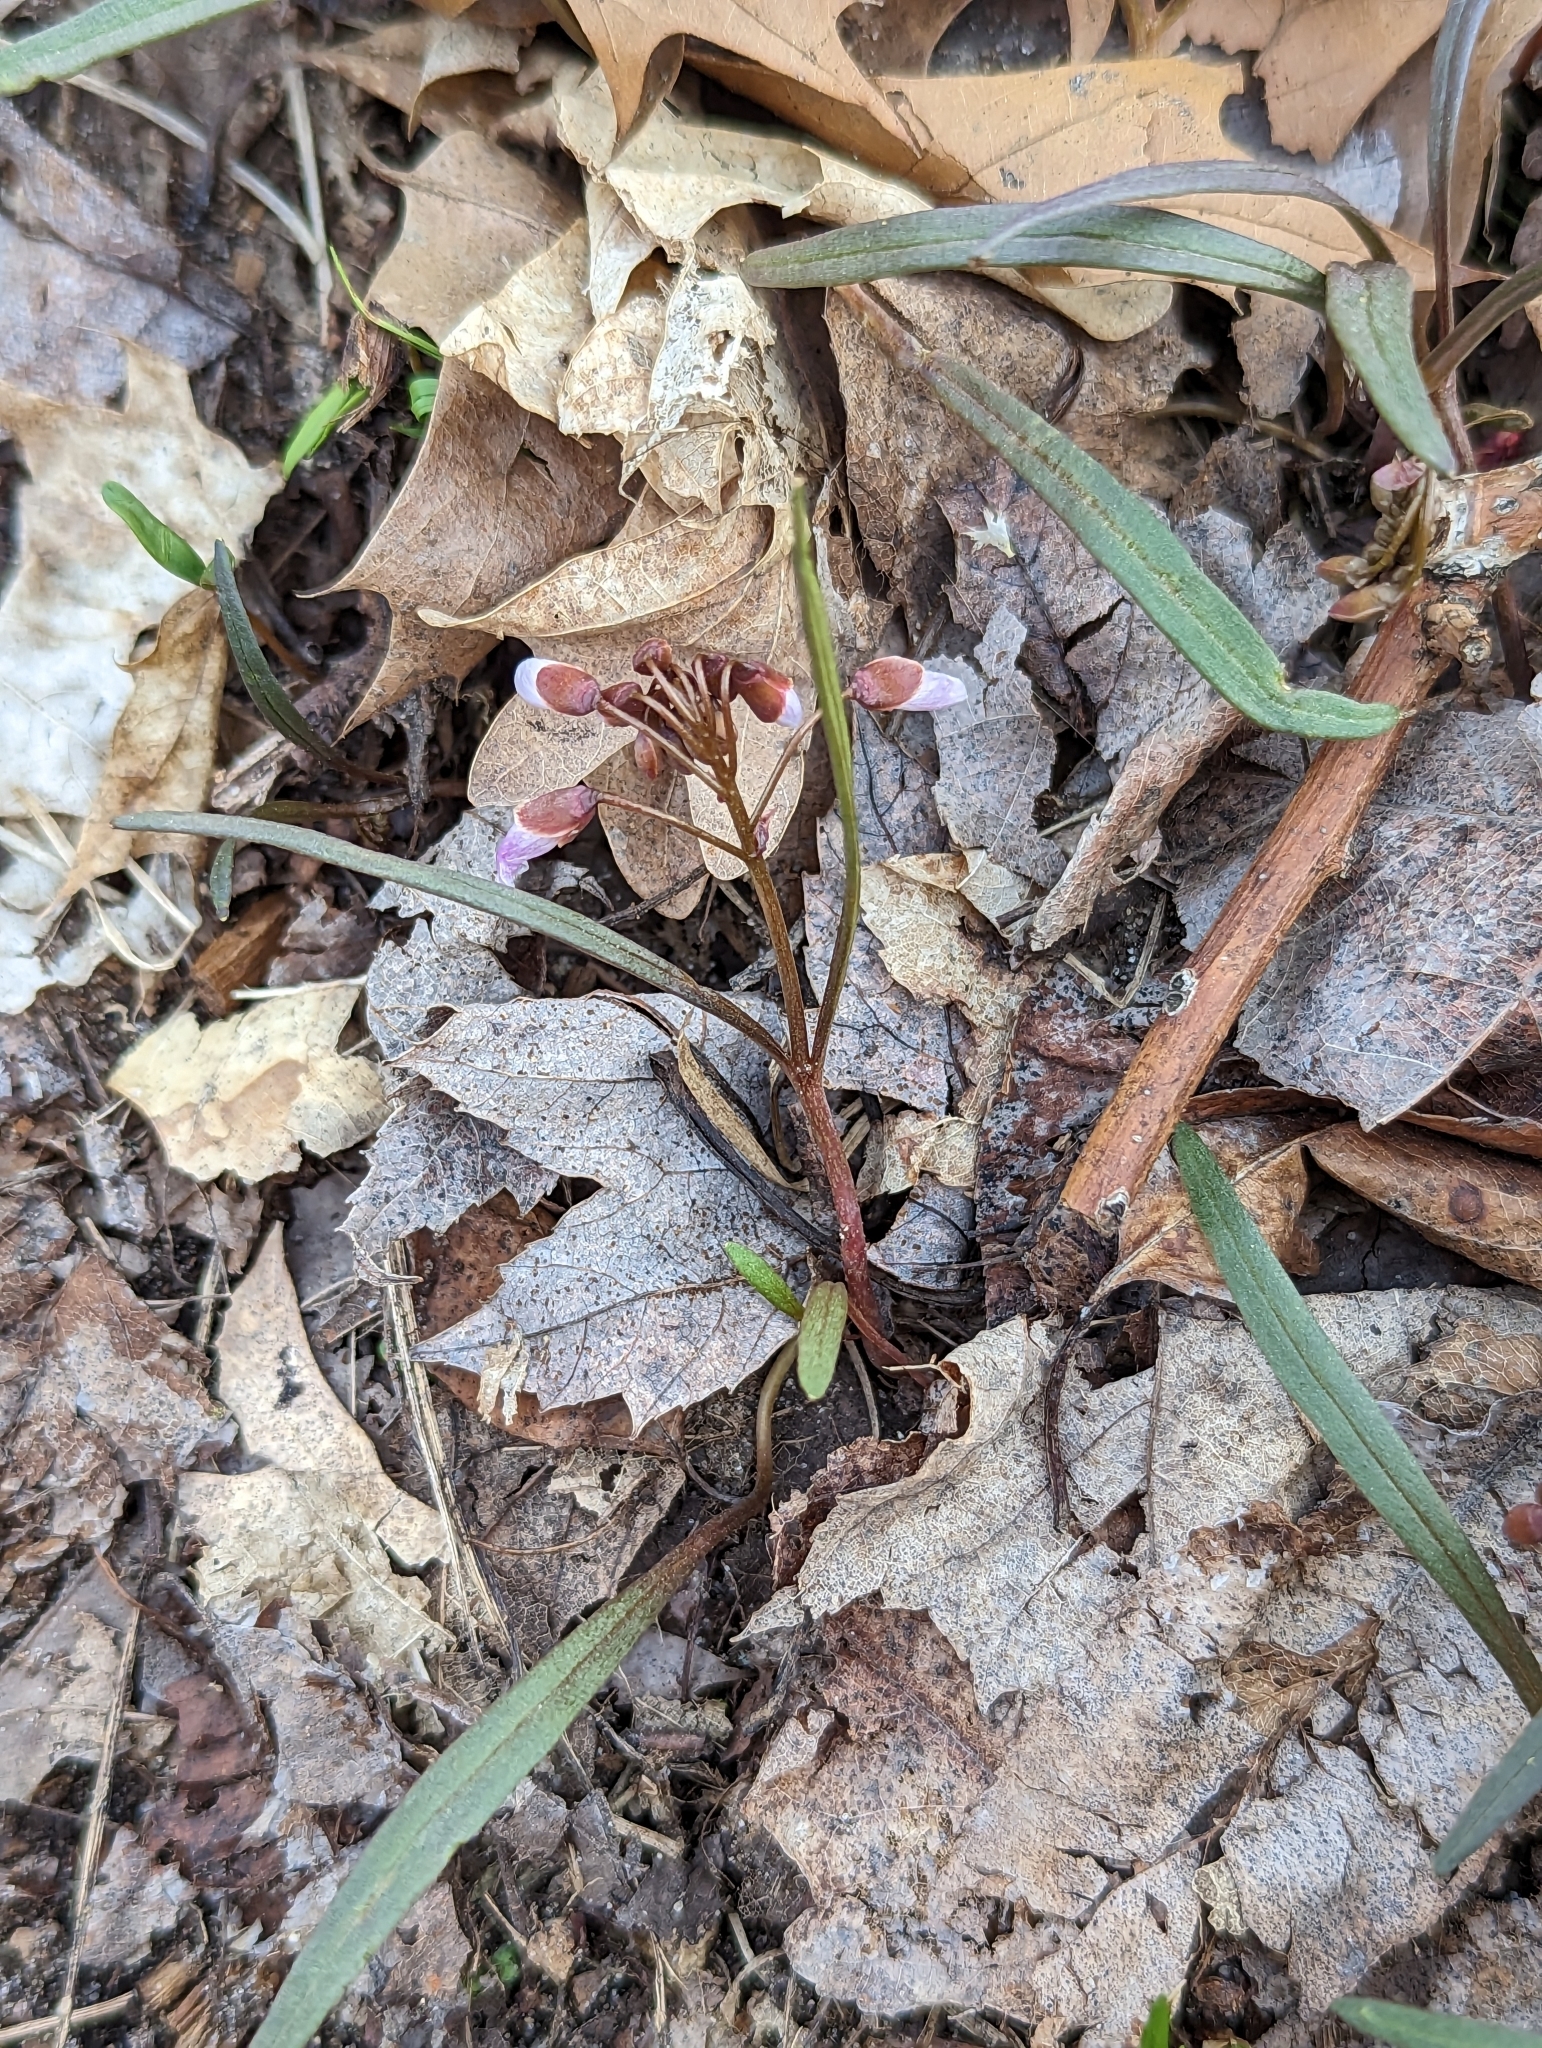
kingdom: Plantae
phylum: Tracheophyta
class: Magnoliopsida
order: Caryophyllales
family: Montiaceae
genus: Claytonia
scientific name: Claytonia virginica
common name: Virginia springbeauty
